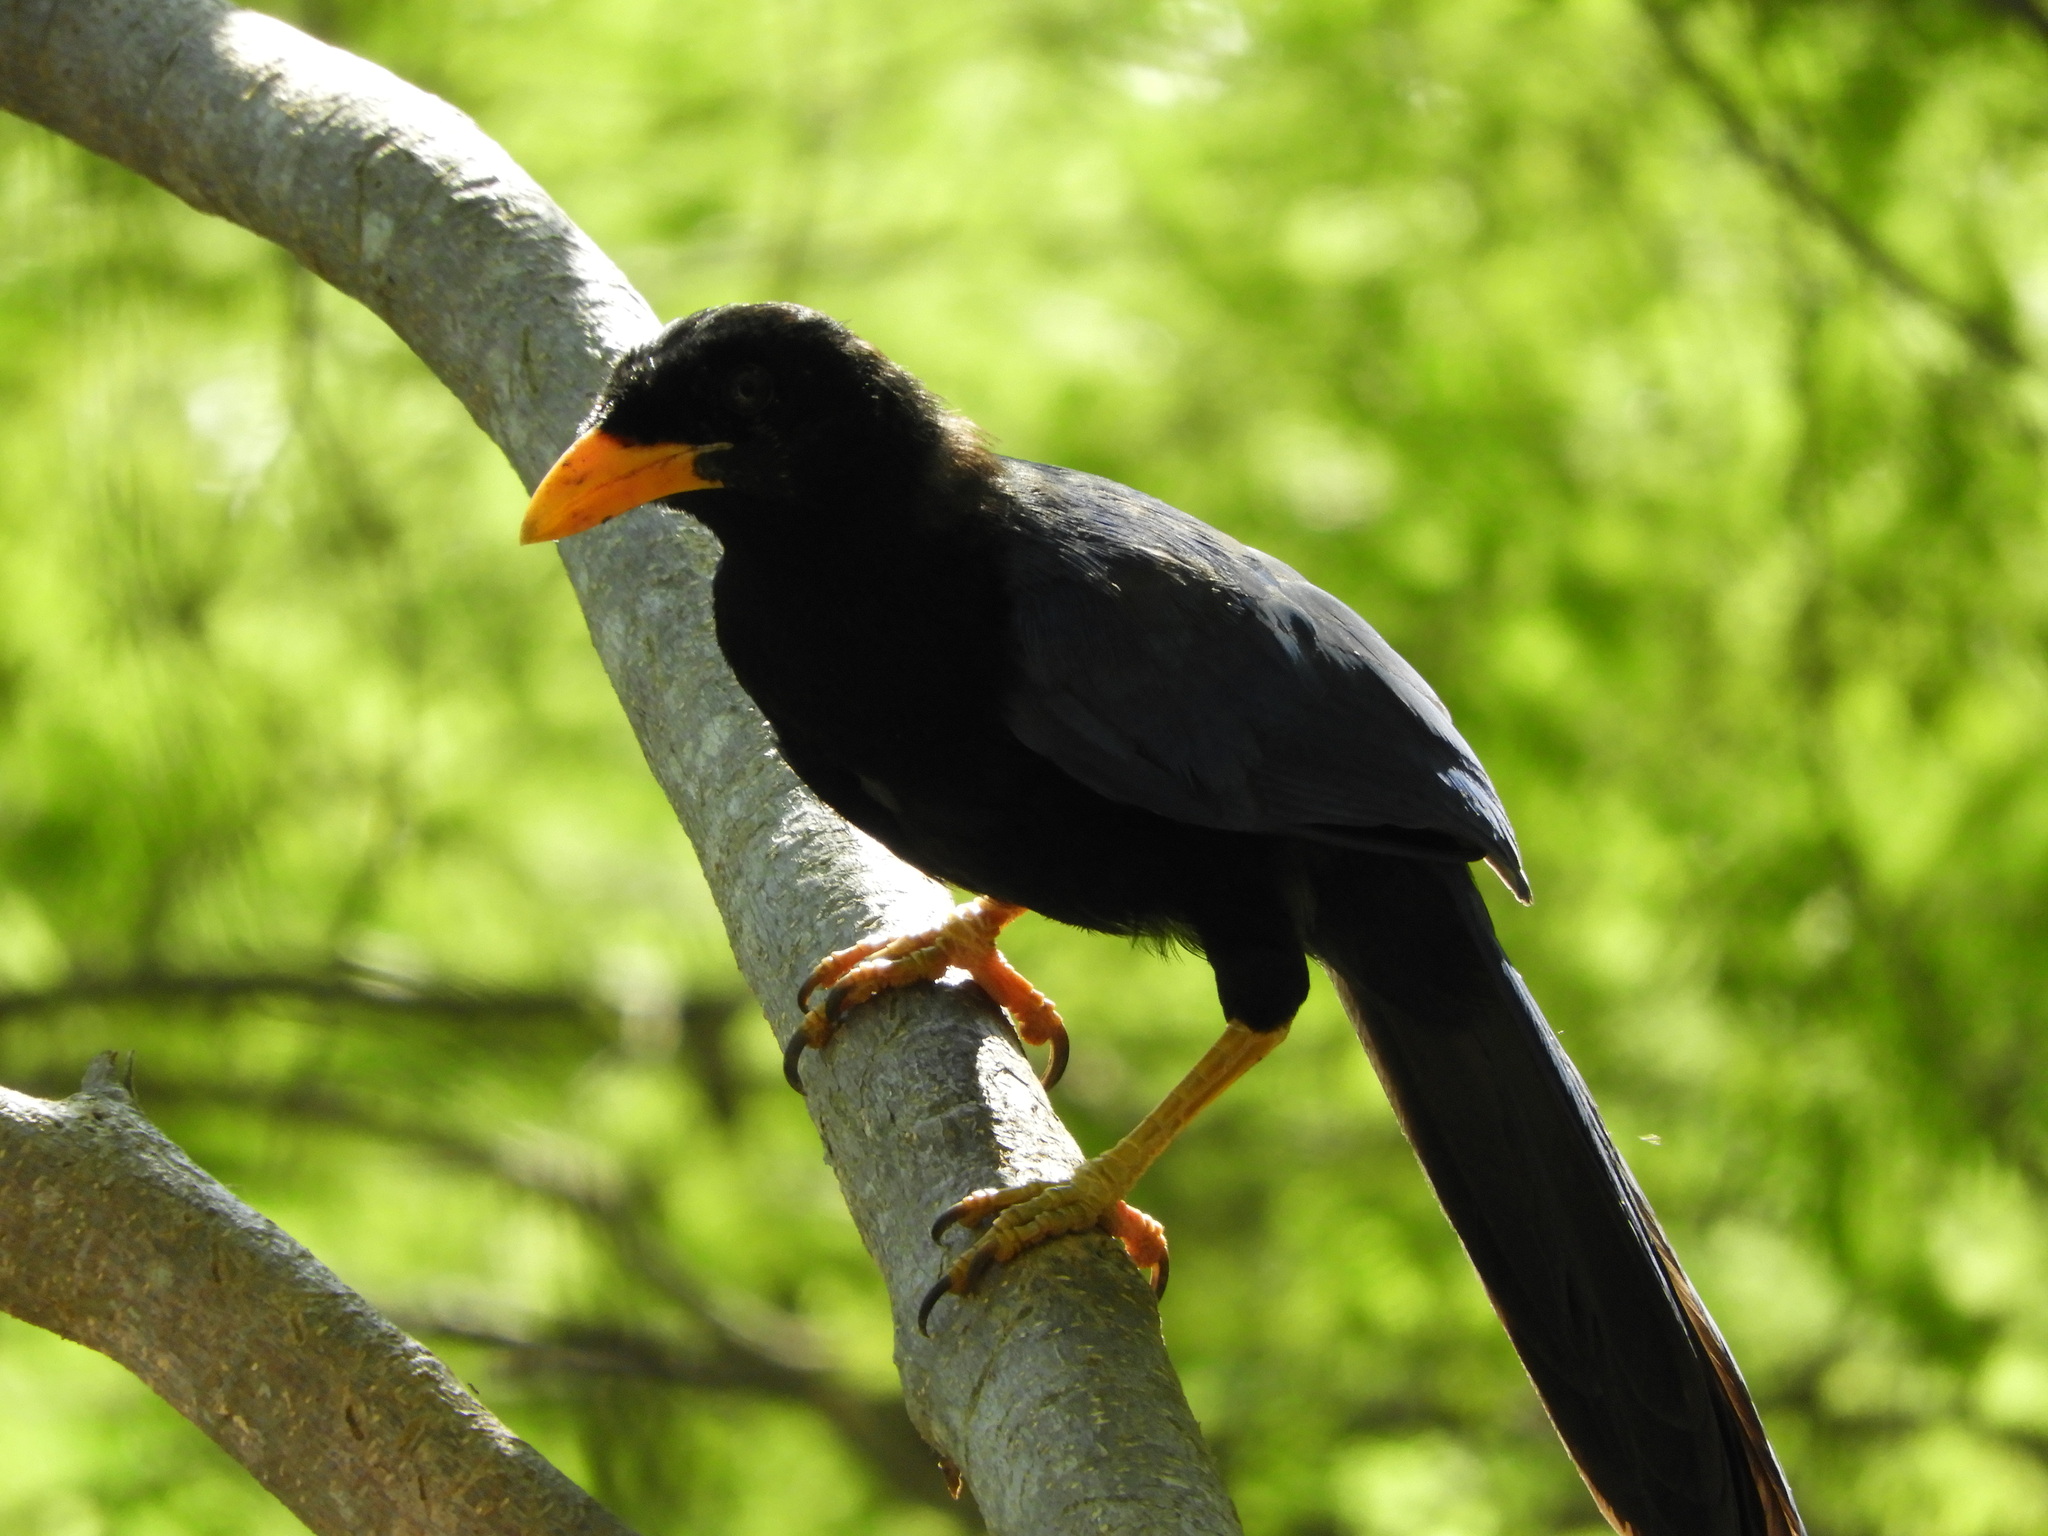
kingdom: Animalia
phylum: Chordata
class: Aves
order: Passeriformes
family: Corvidae
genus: Cyanocorax
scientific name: Cyanocorax beecheii
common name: Purplish-backed jay
